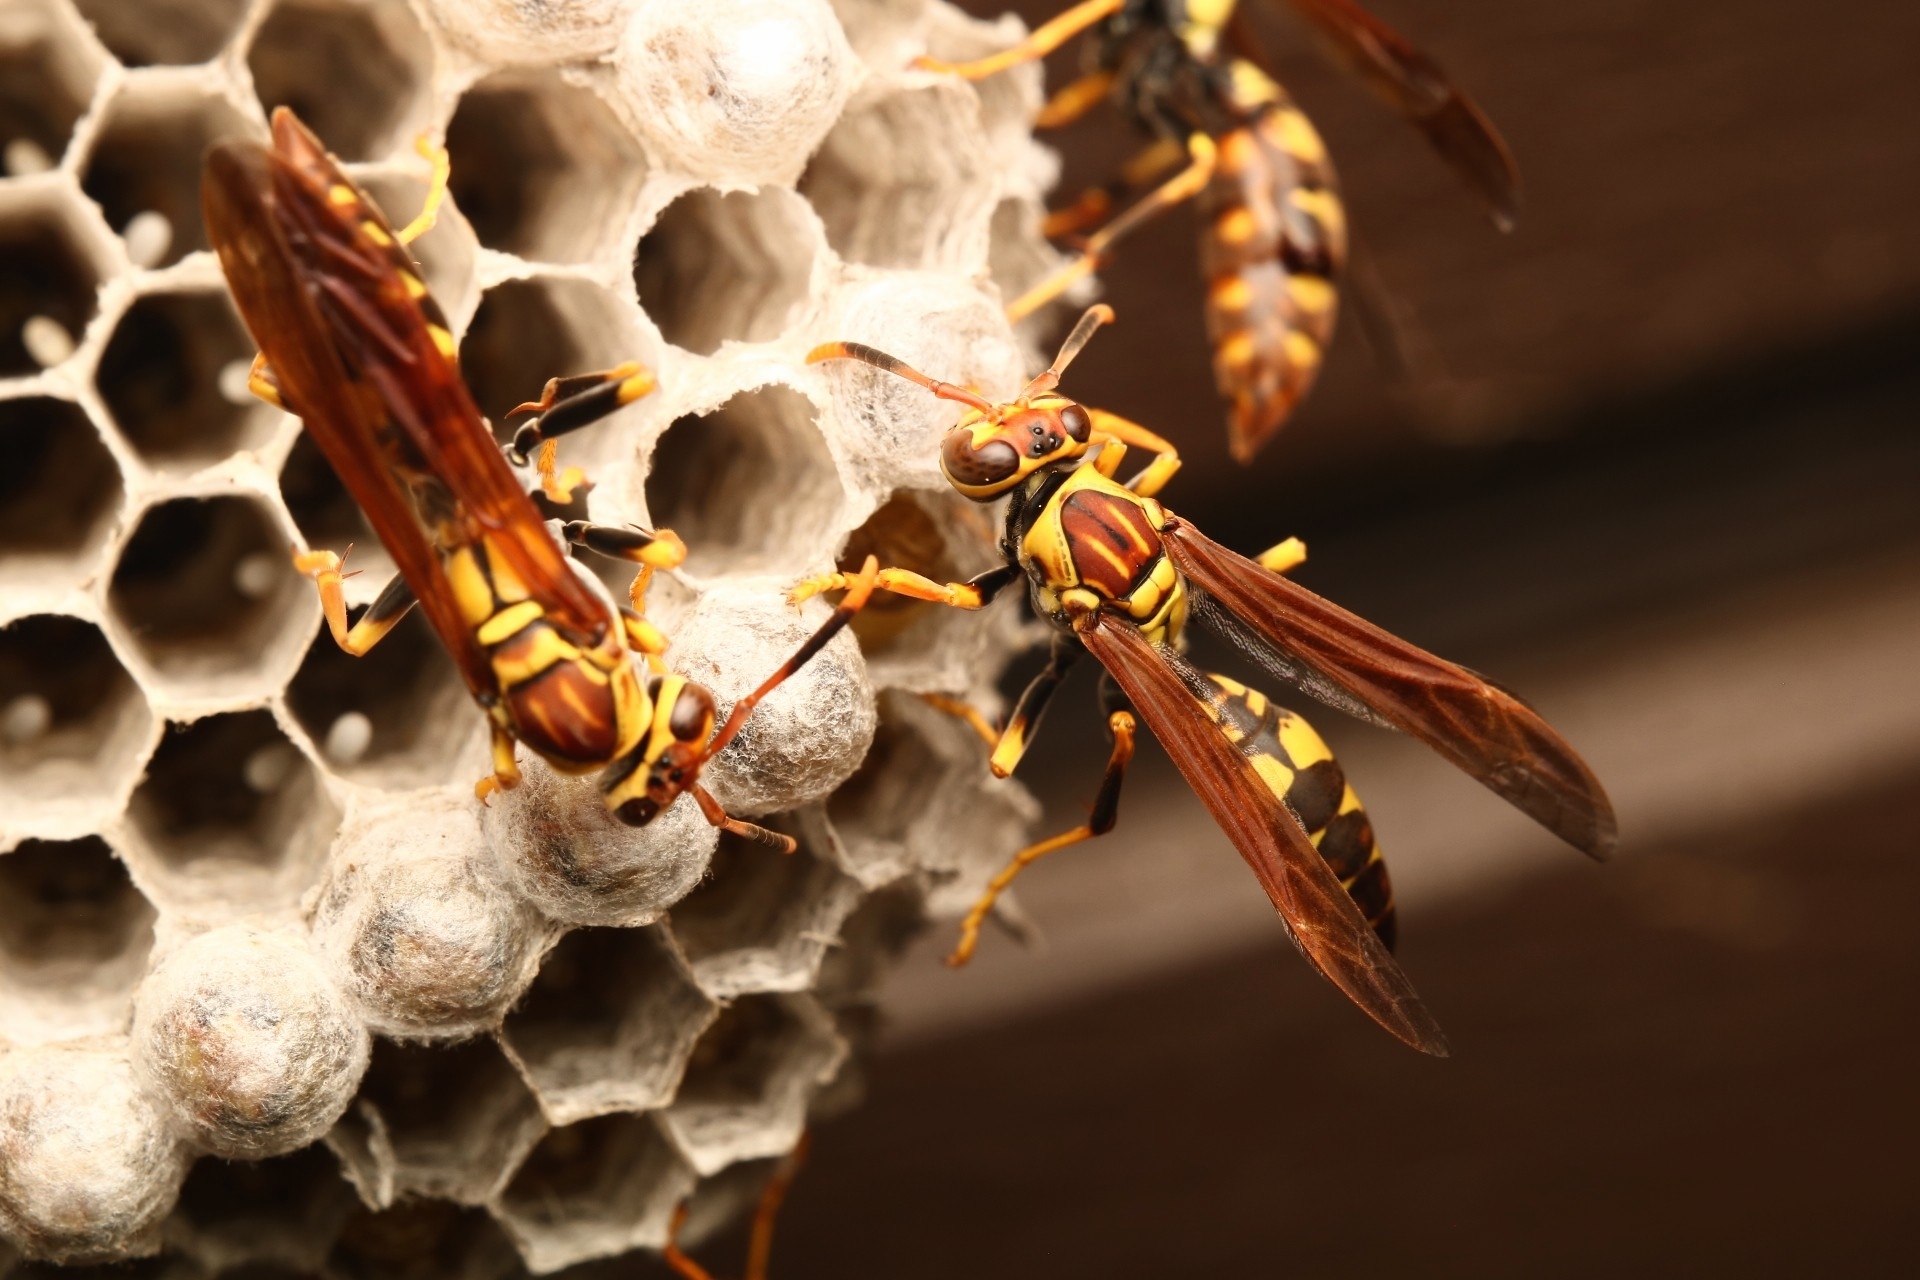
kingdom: Animalia
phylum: Arthropoda
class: Insecta
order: Hymenoptera
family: Eumenidae
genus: Polistes
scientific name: Polistes myersi
